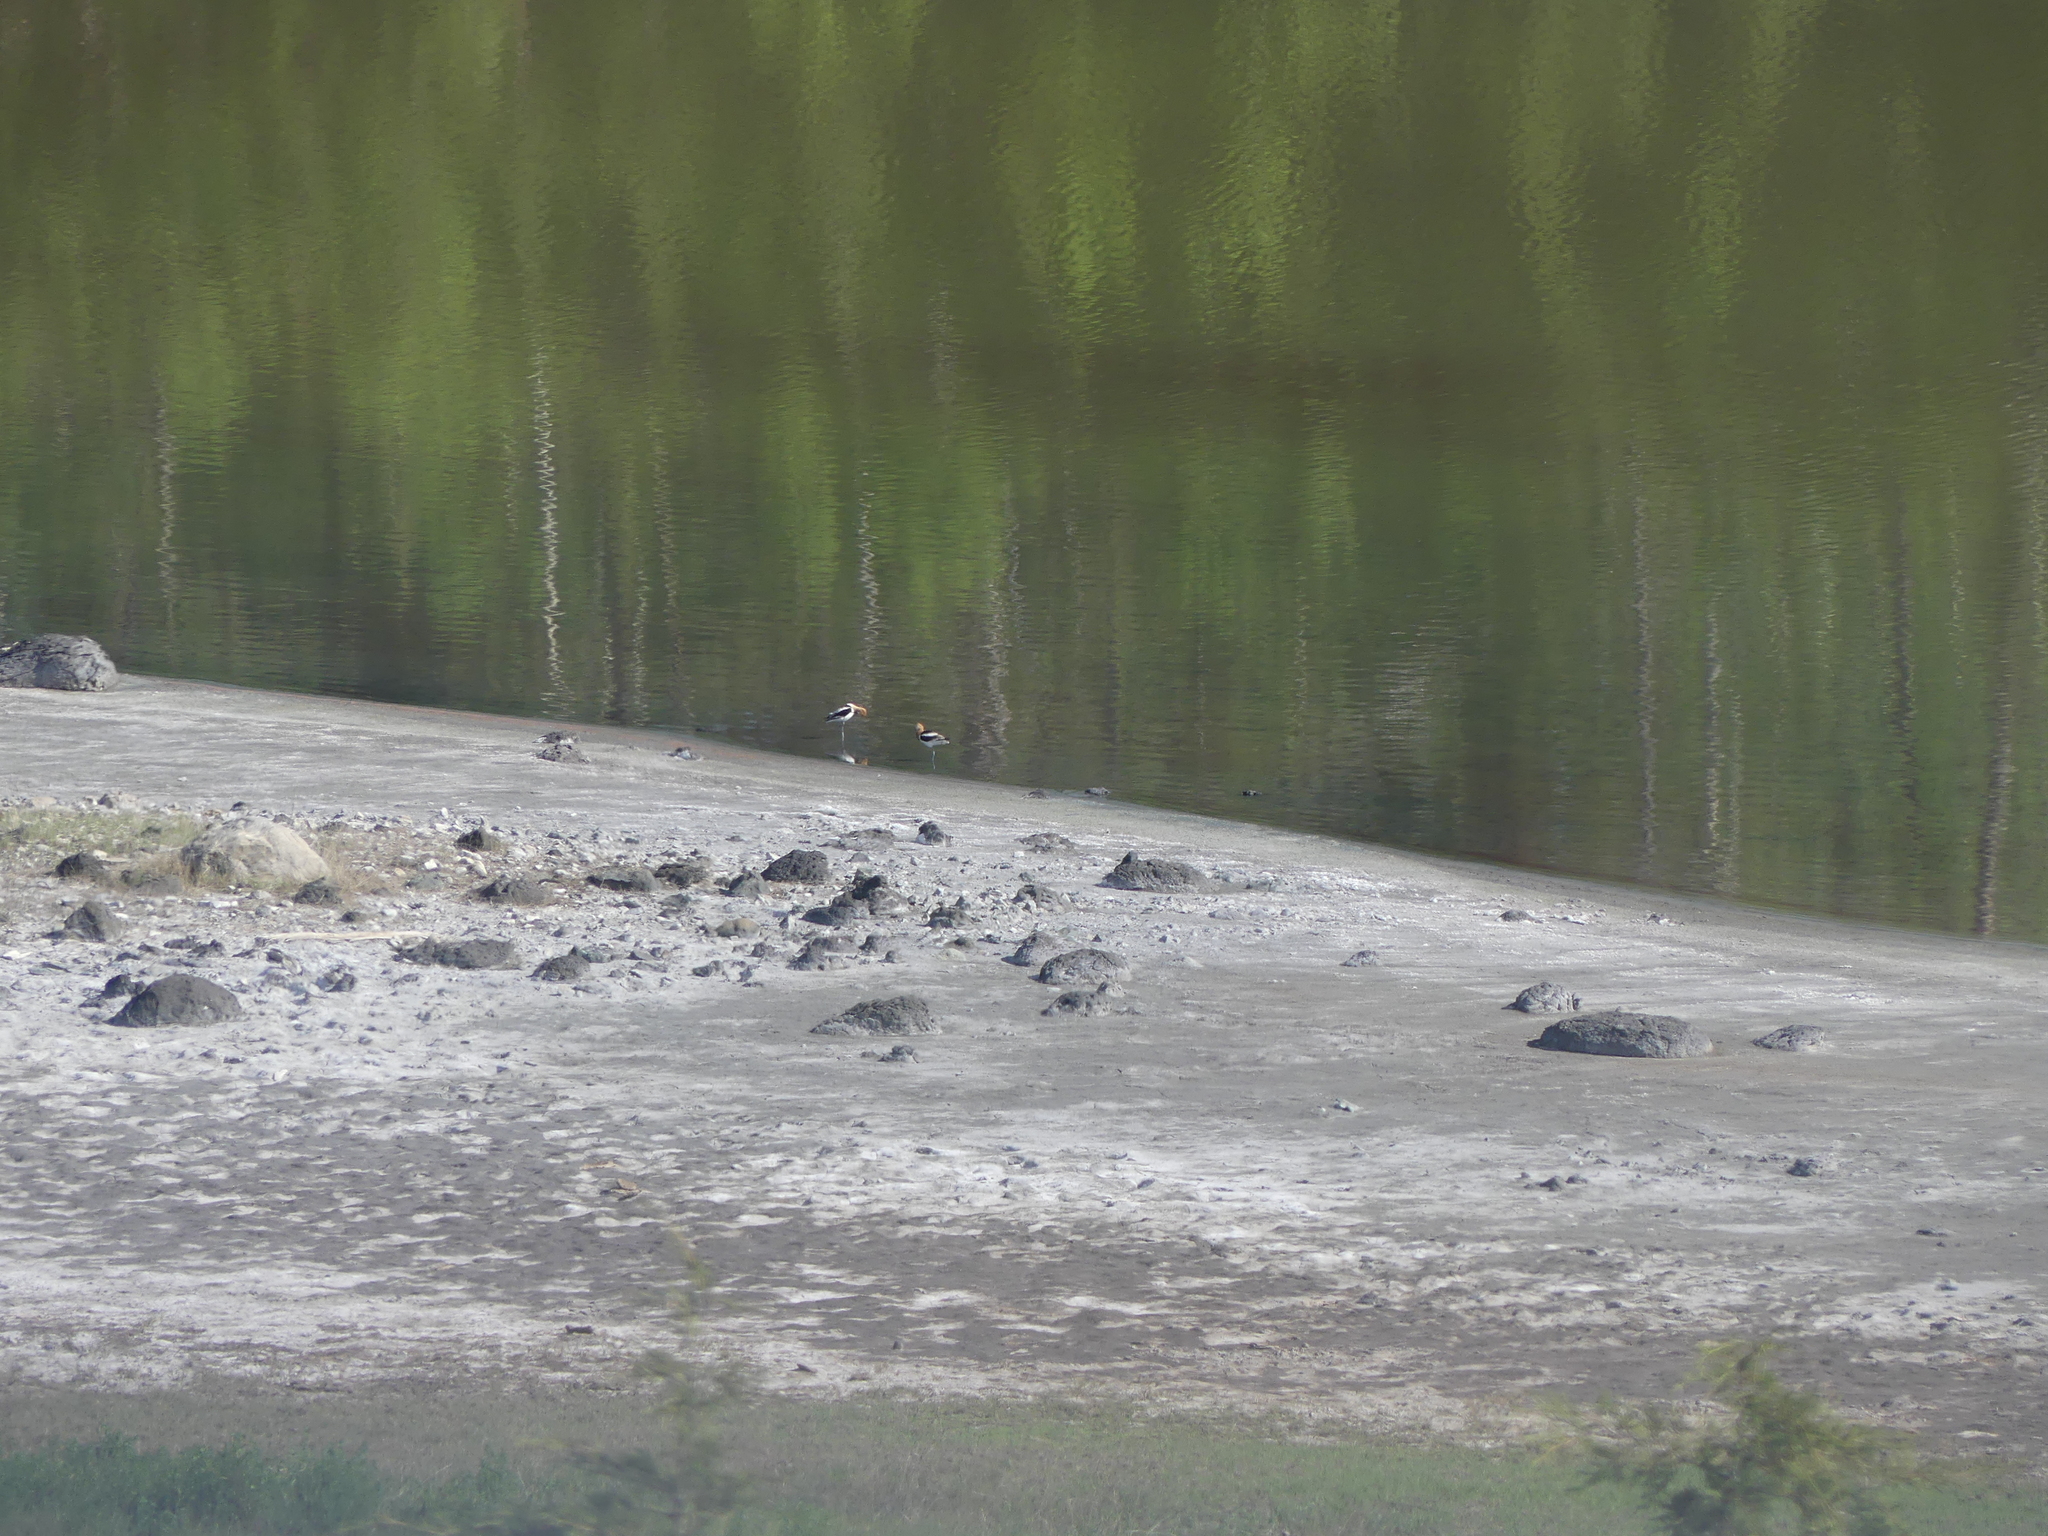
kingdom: Animalia
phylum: Chordata
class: Aves
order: Charadriiformes
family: Recurvirostridae
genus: Recurvirostra
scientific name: Recurvirostra americana
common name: American avocet
